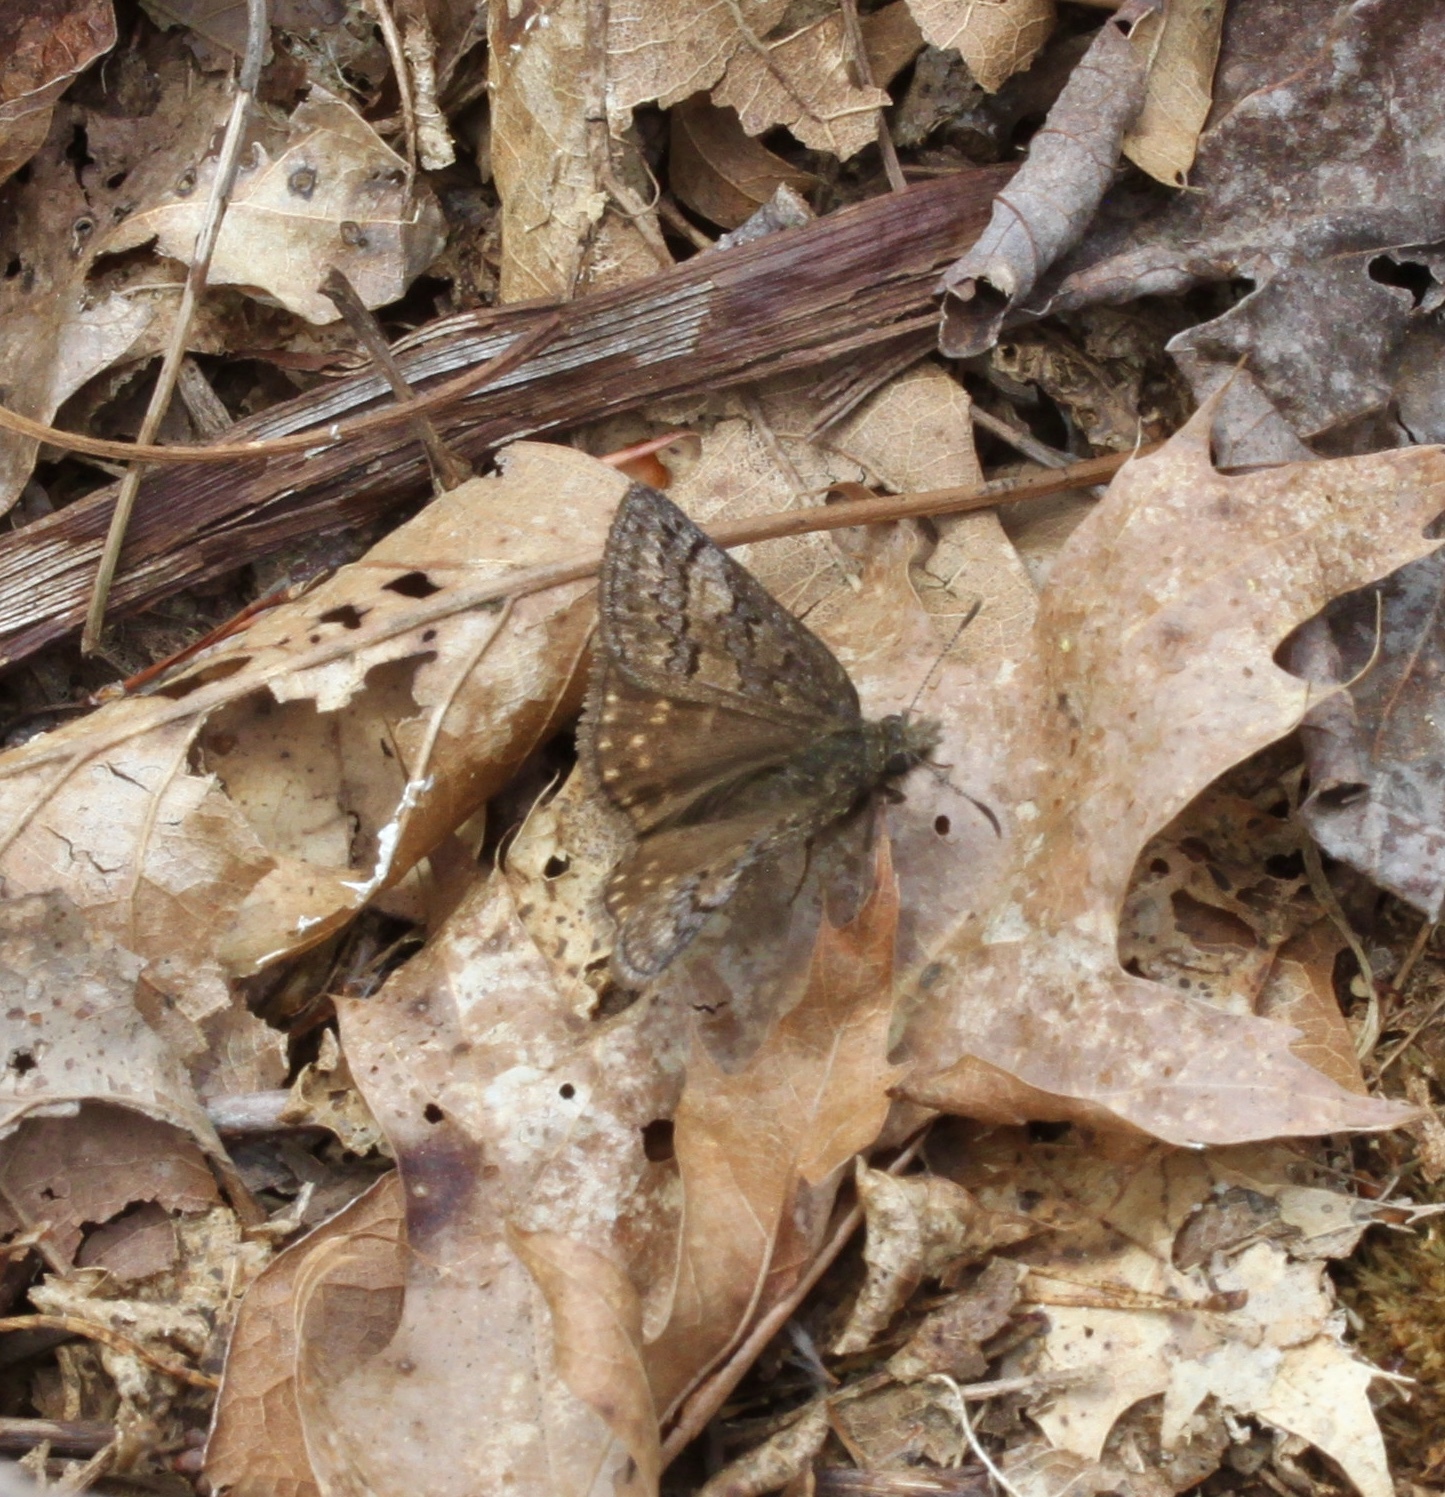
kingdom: Animalia
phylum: Arthropoda
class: Insecta
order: Lepidoptera
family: Hesperiidae
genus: Erynnis
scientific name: Erynnis icelus
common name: Dreamy duskywing
